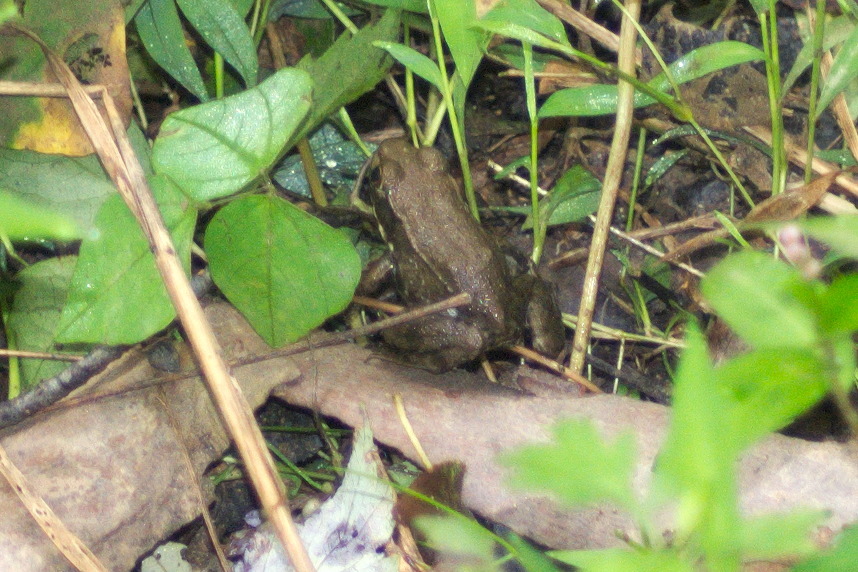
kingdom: Animalia
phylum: Chordata
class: Amphibia
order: Anura
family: Ranidae
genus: Lithobates
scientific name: Lithobates clamitans
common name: Green frog
